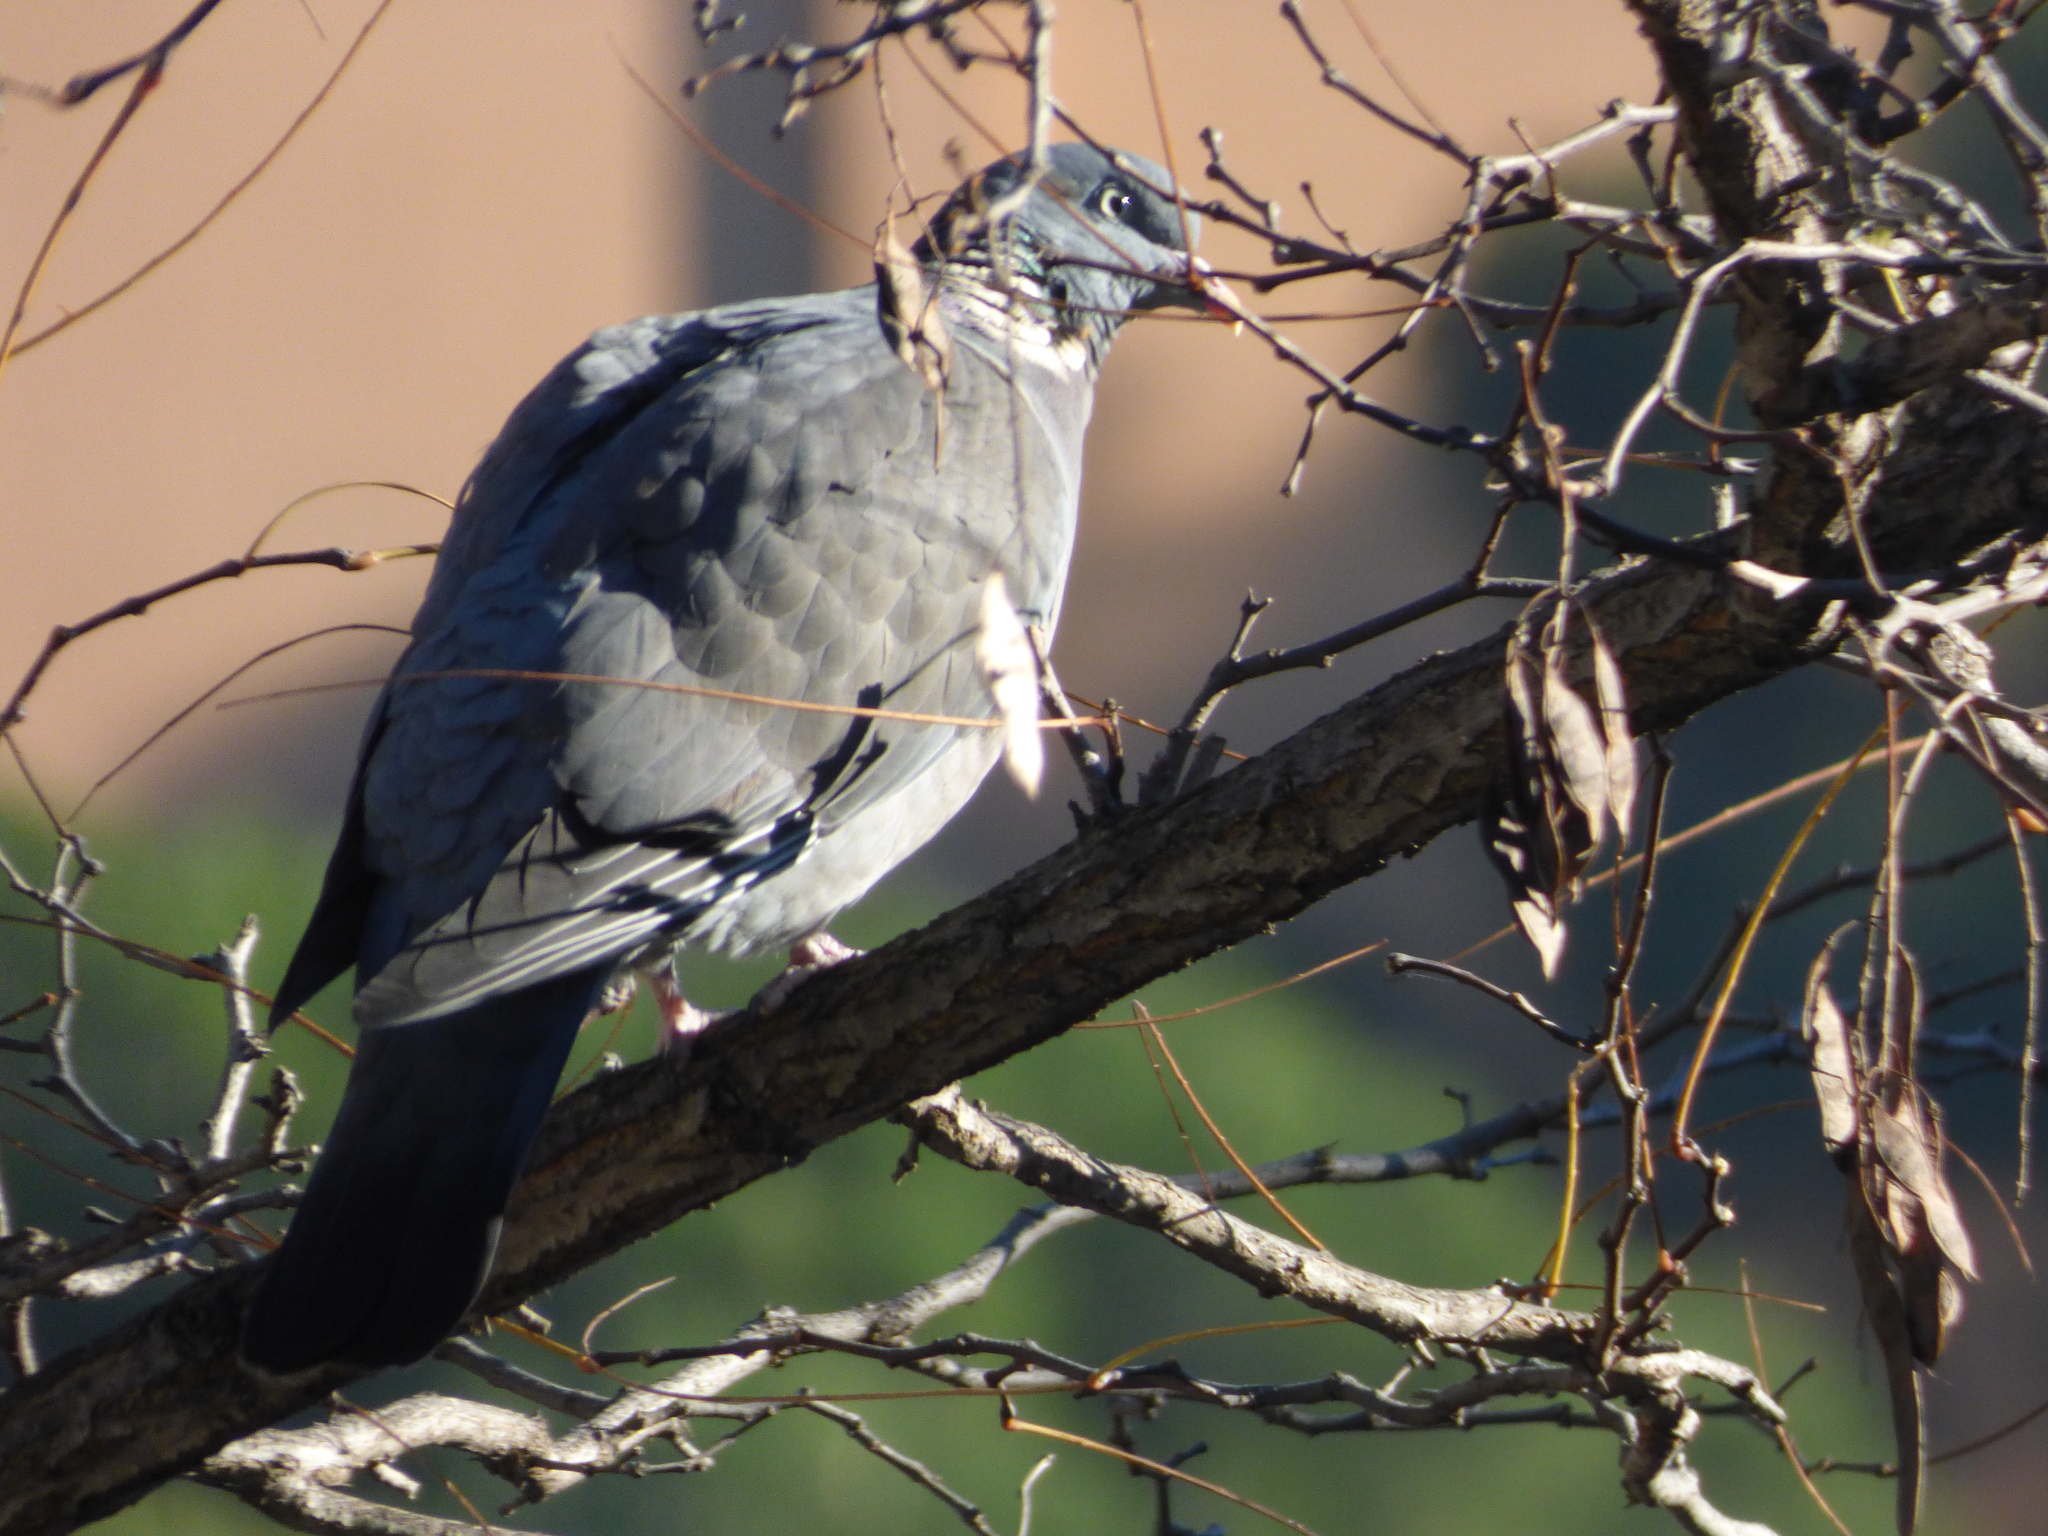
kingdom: Animalia
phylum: Chordata
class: Aves
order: Columbiformes
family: Columbidae
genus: Columba
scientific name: Columba palumbus
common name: Common wood pigeon
